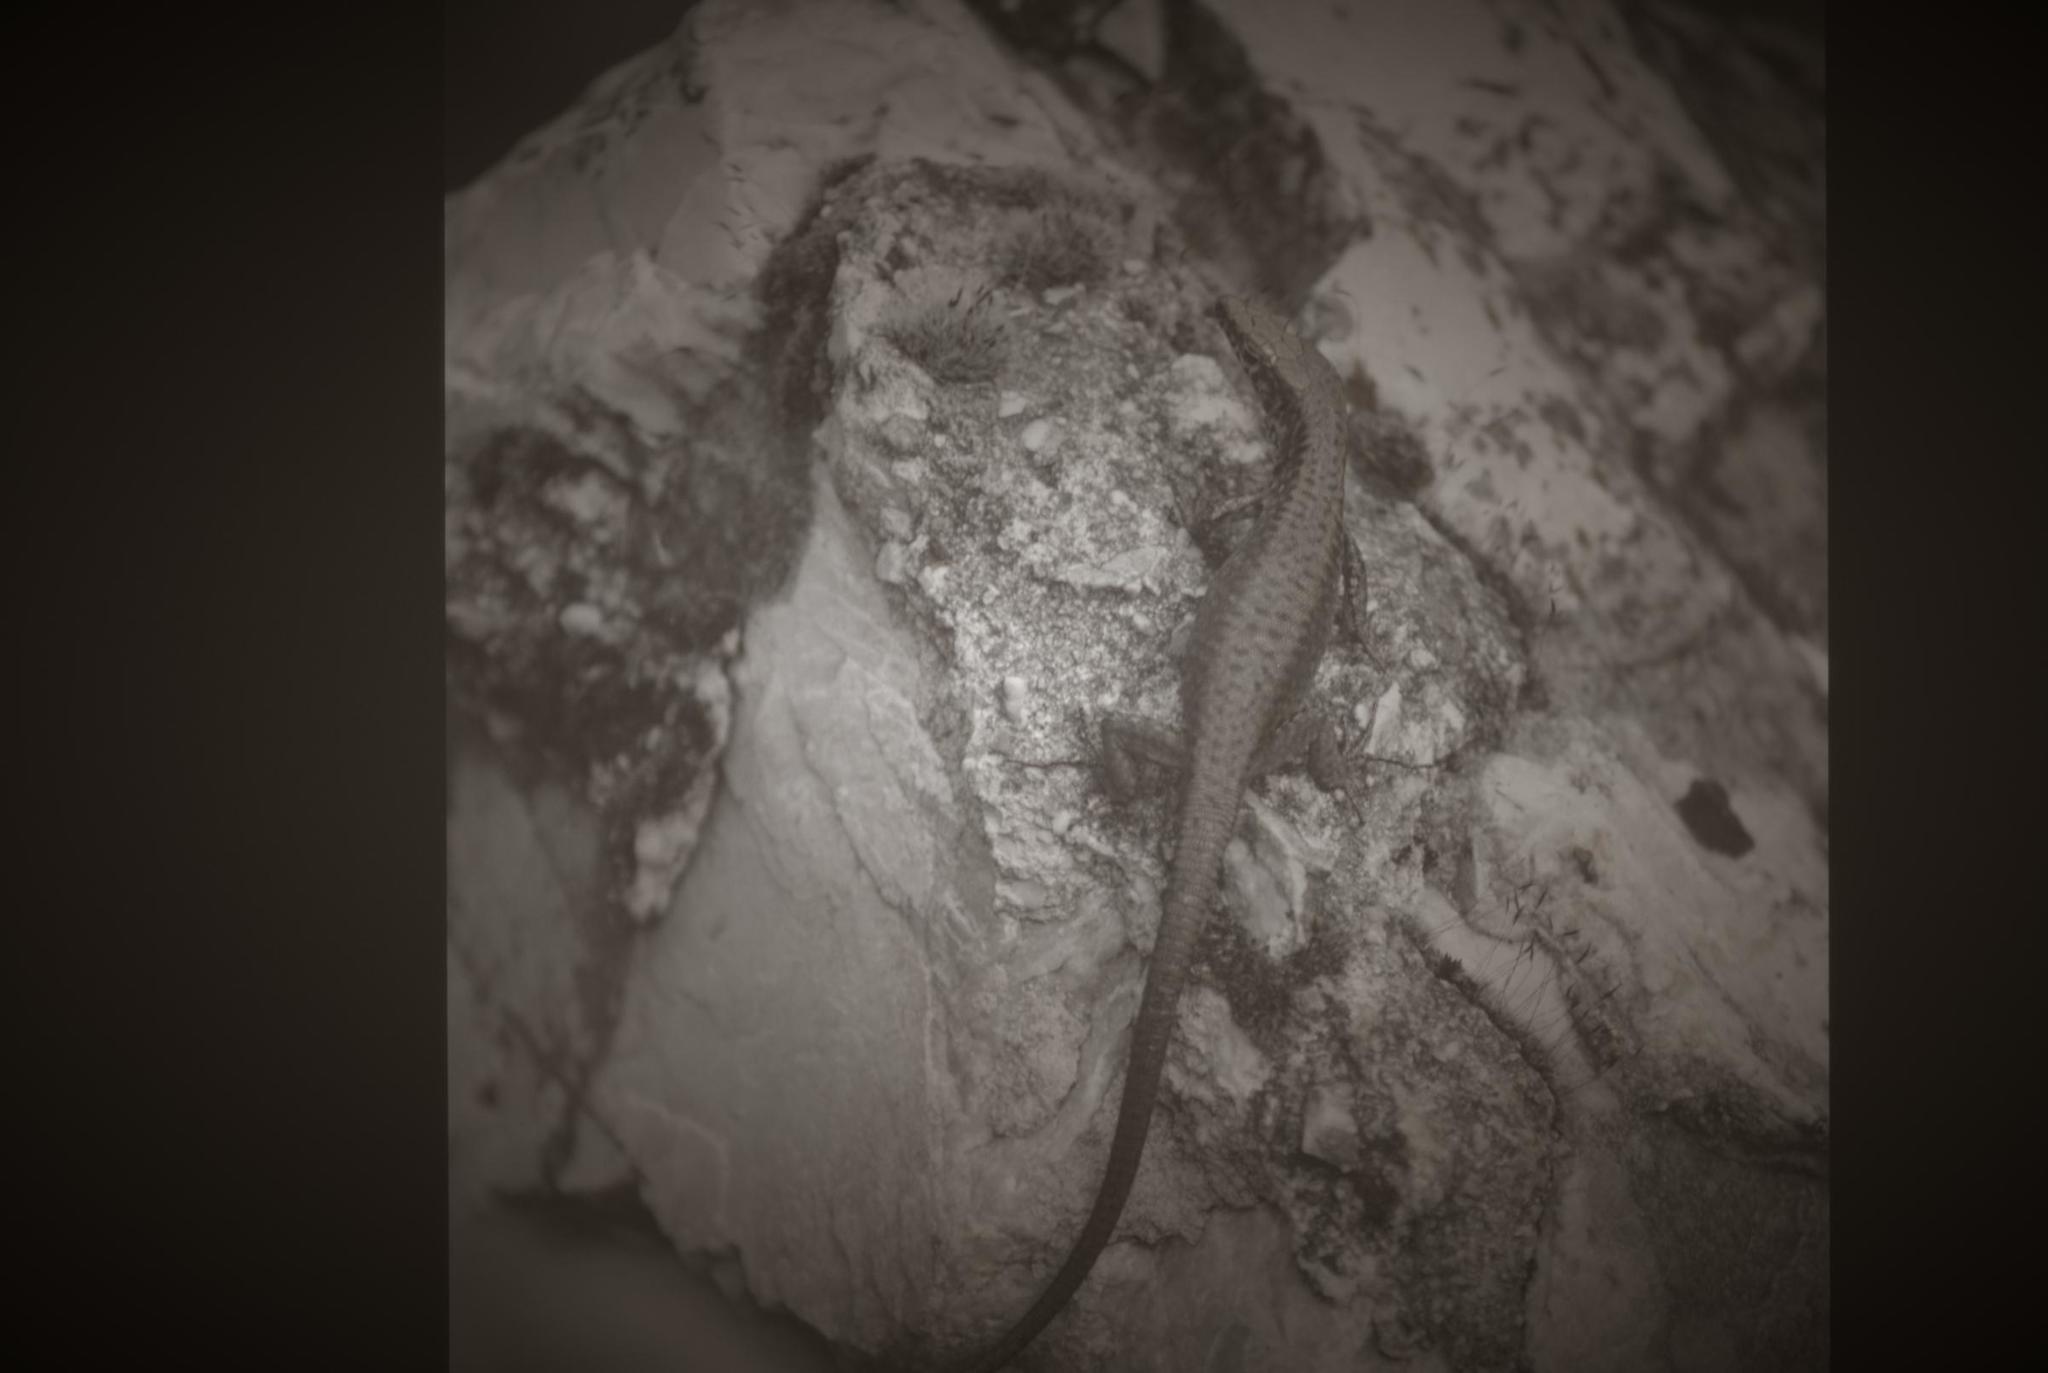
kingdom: Animalia
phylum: Chordata
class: Squamata
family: Lacertidae
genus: Hellenolacerta
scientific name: Hellenolacerta graeca
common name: Greek rock lizard
